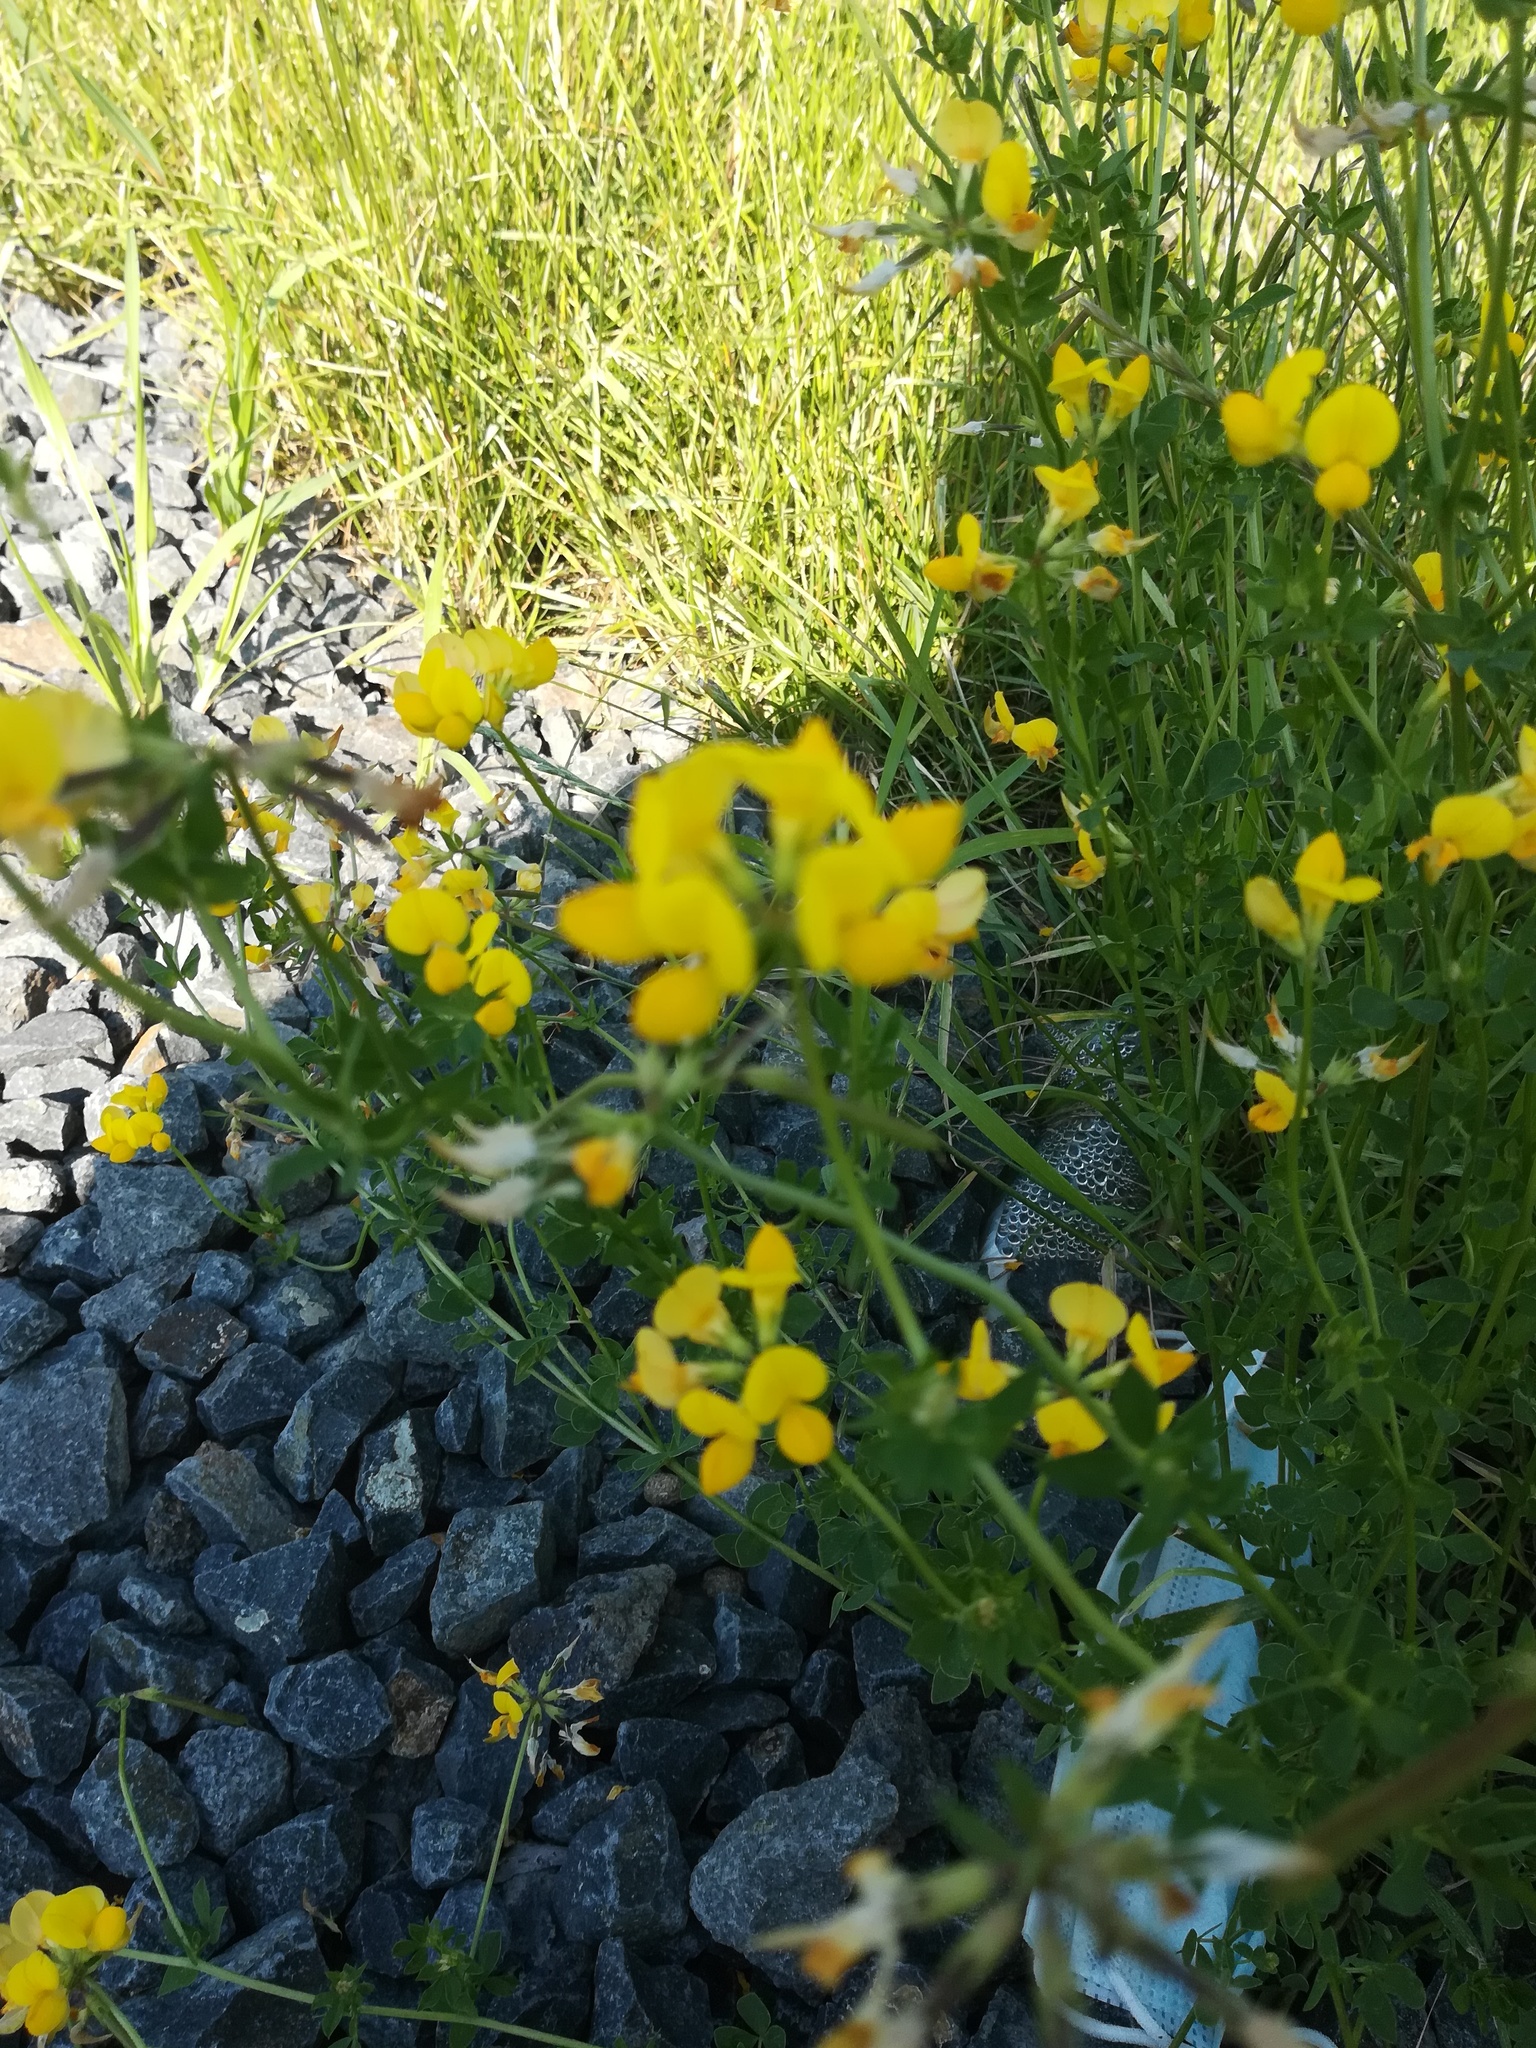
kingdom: Plantae
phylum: Tracheophyta
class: Magnoliopsida
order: Fabales
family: Fabaceae
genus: Lotus
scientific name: Lotus corniculatus
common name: Common bird's-foot-trefoil
